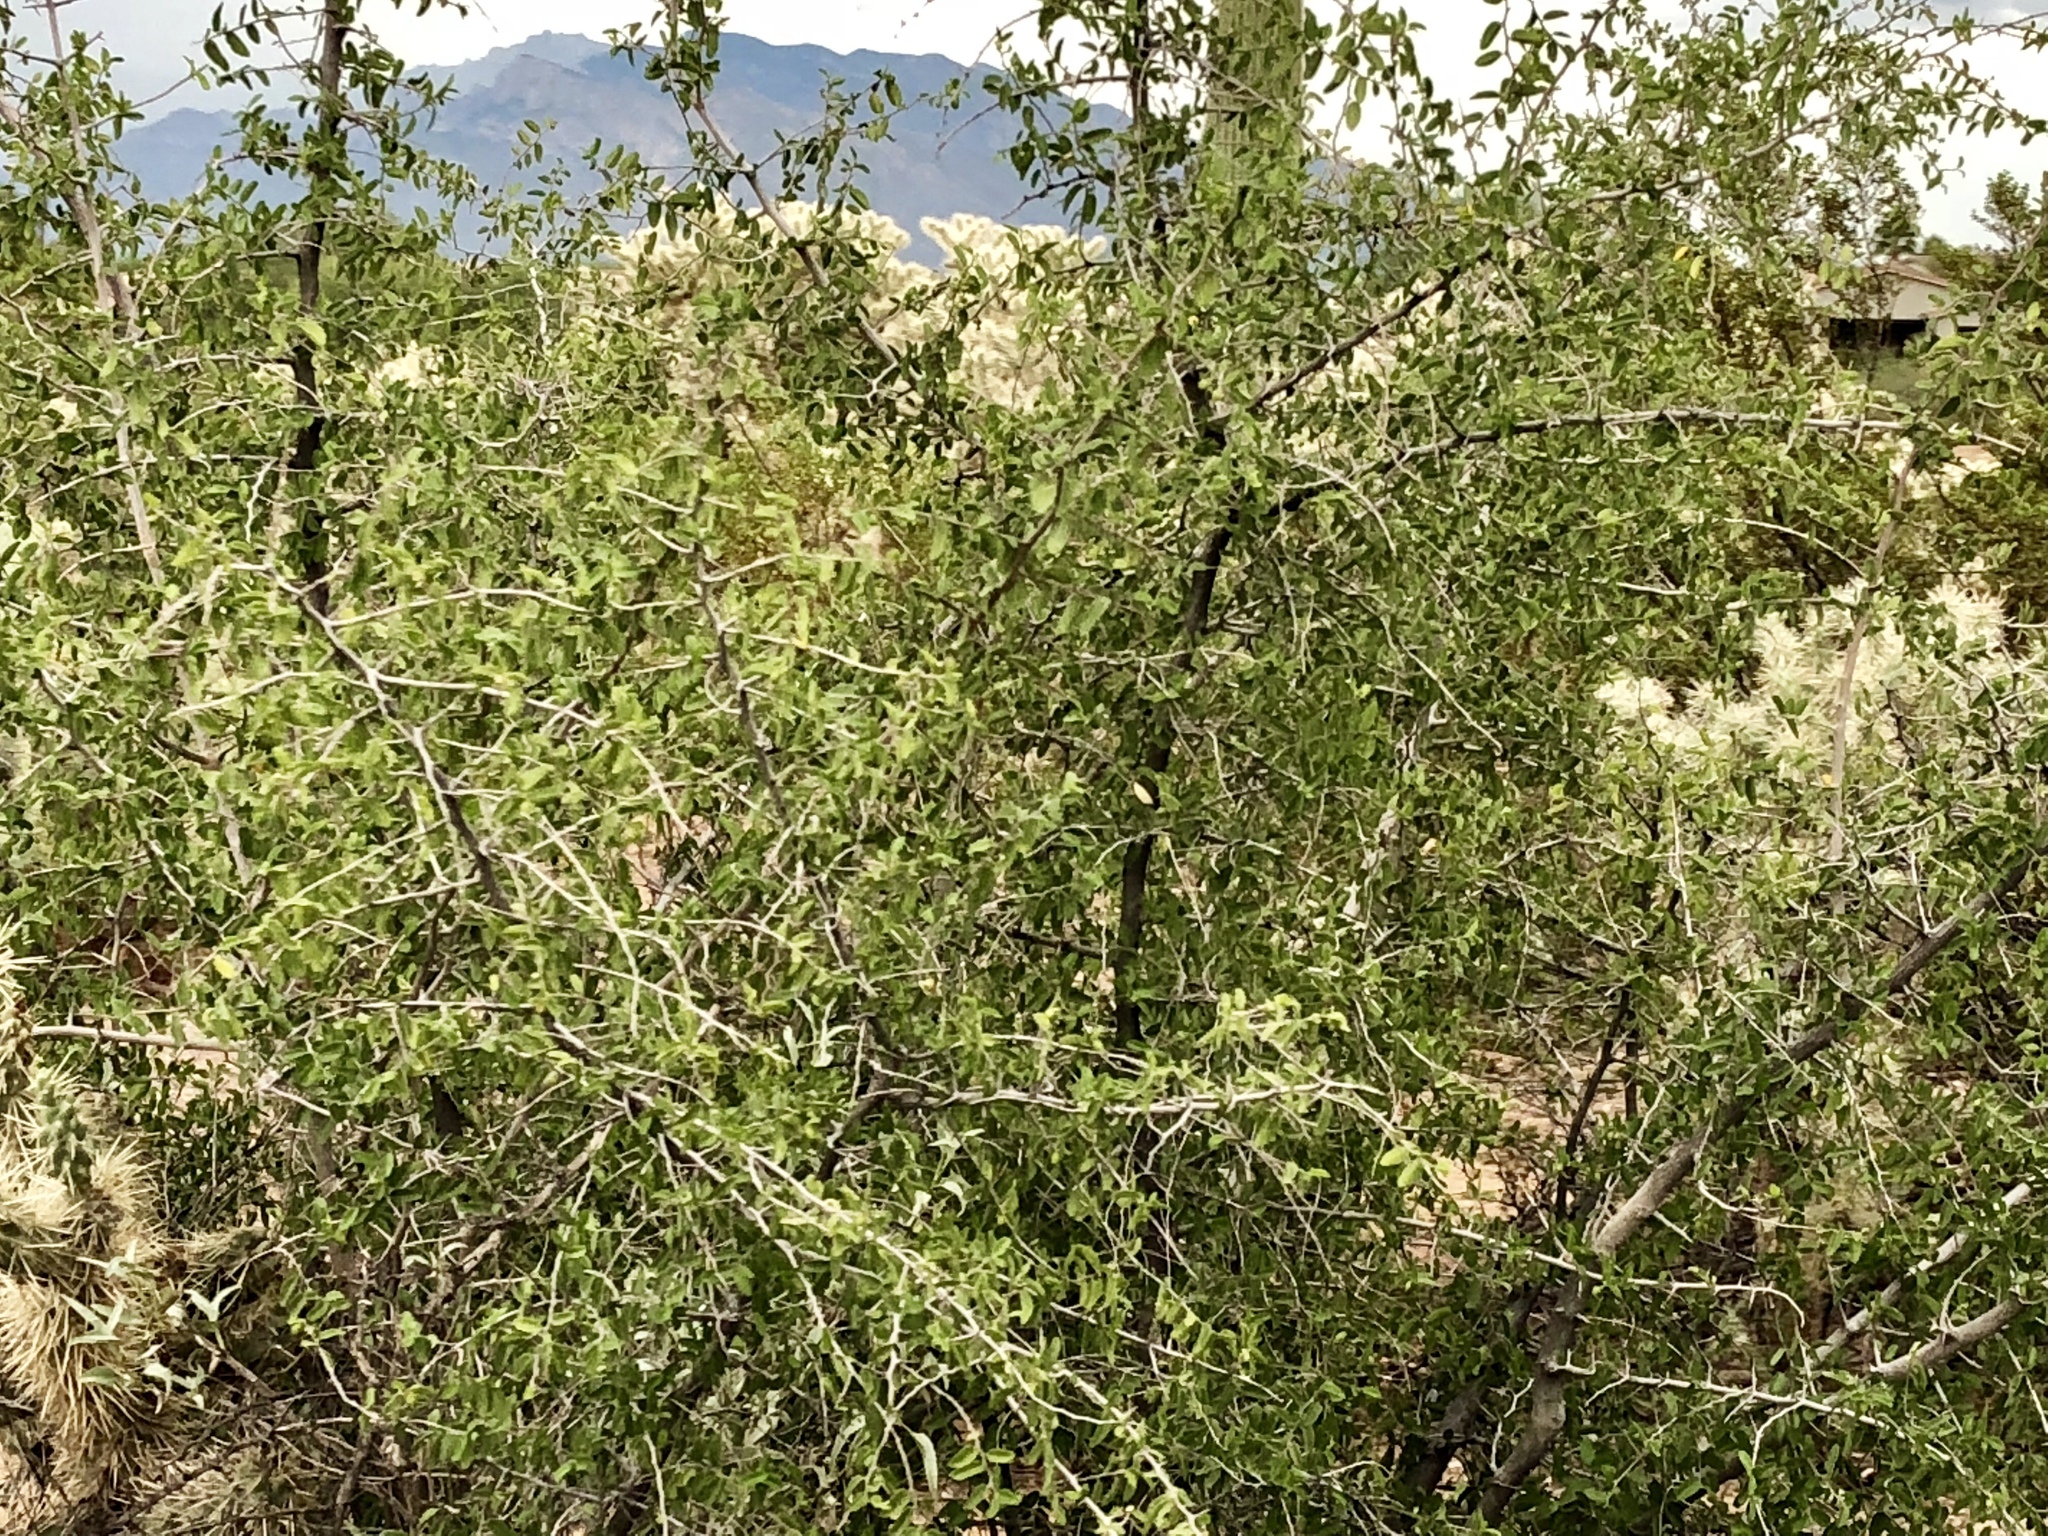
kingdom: Plantae
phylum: Tracheophyta
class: Magnoliopsida
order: Rosales
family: Cannabaceae
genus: Celtis
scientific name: Celtis pallida
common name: Desert hackberry
